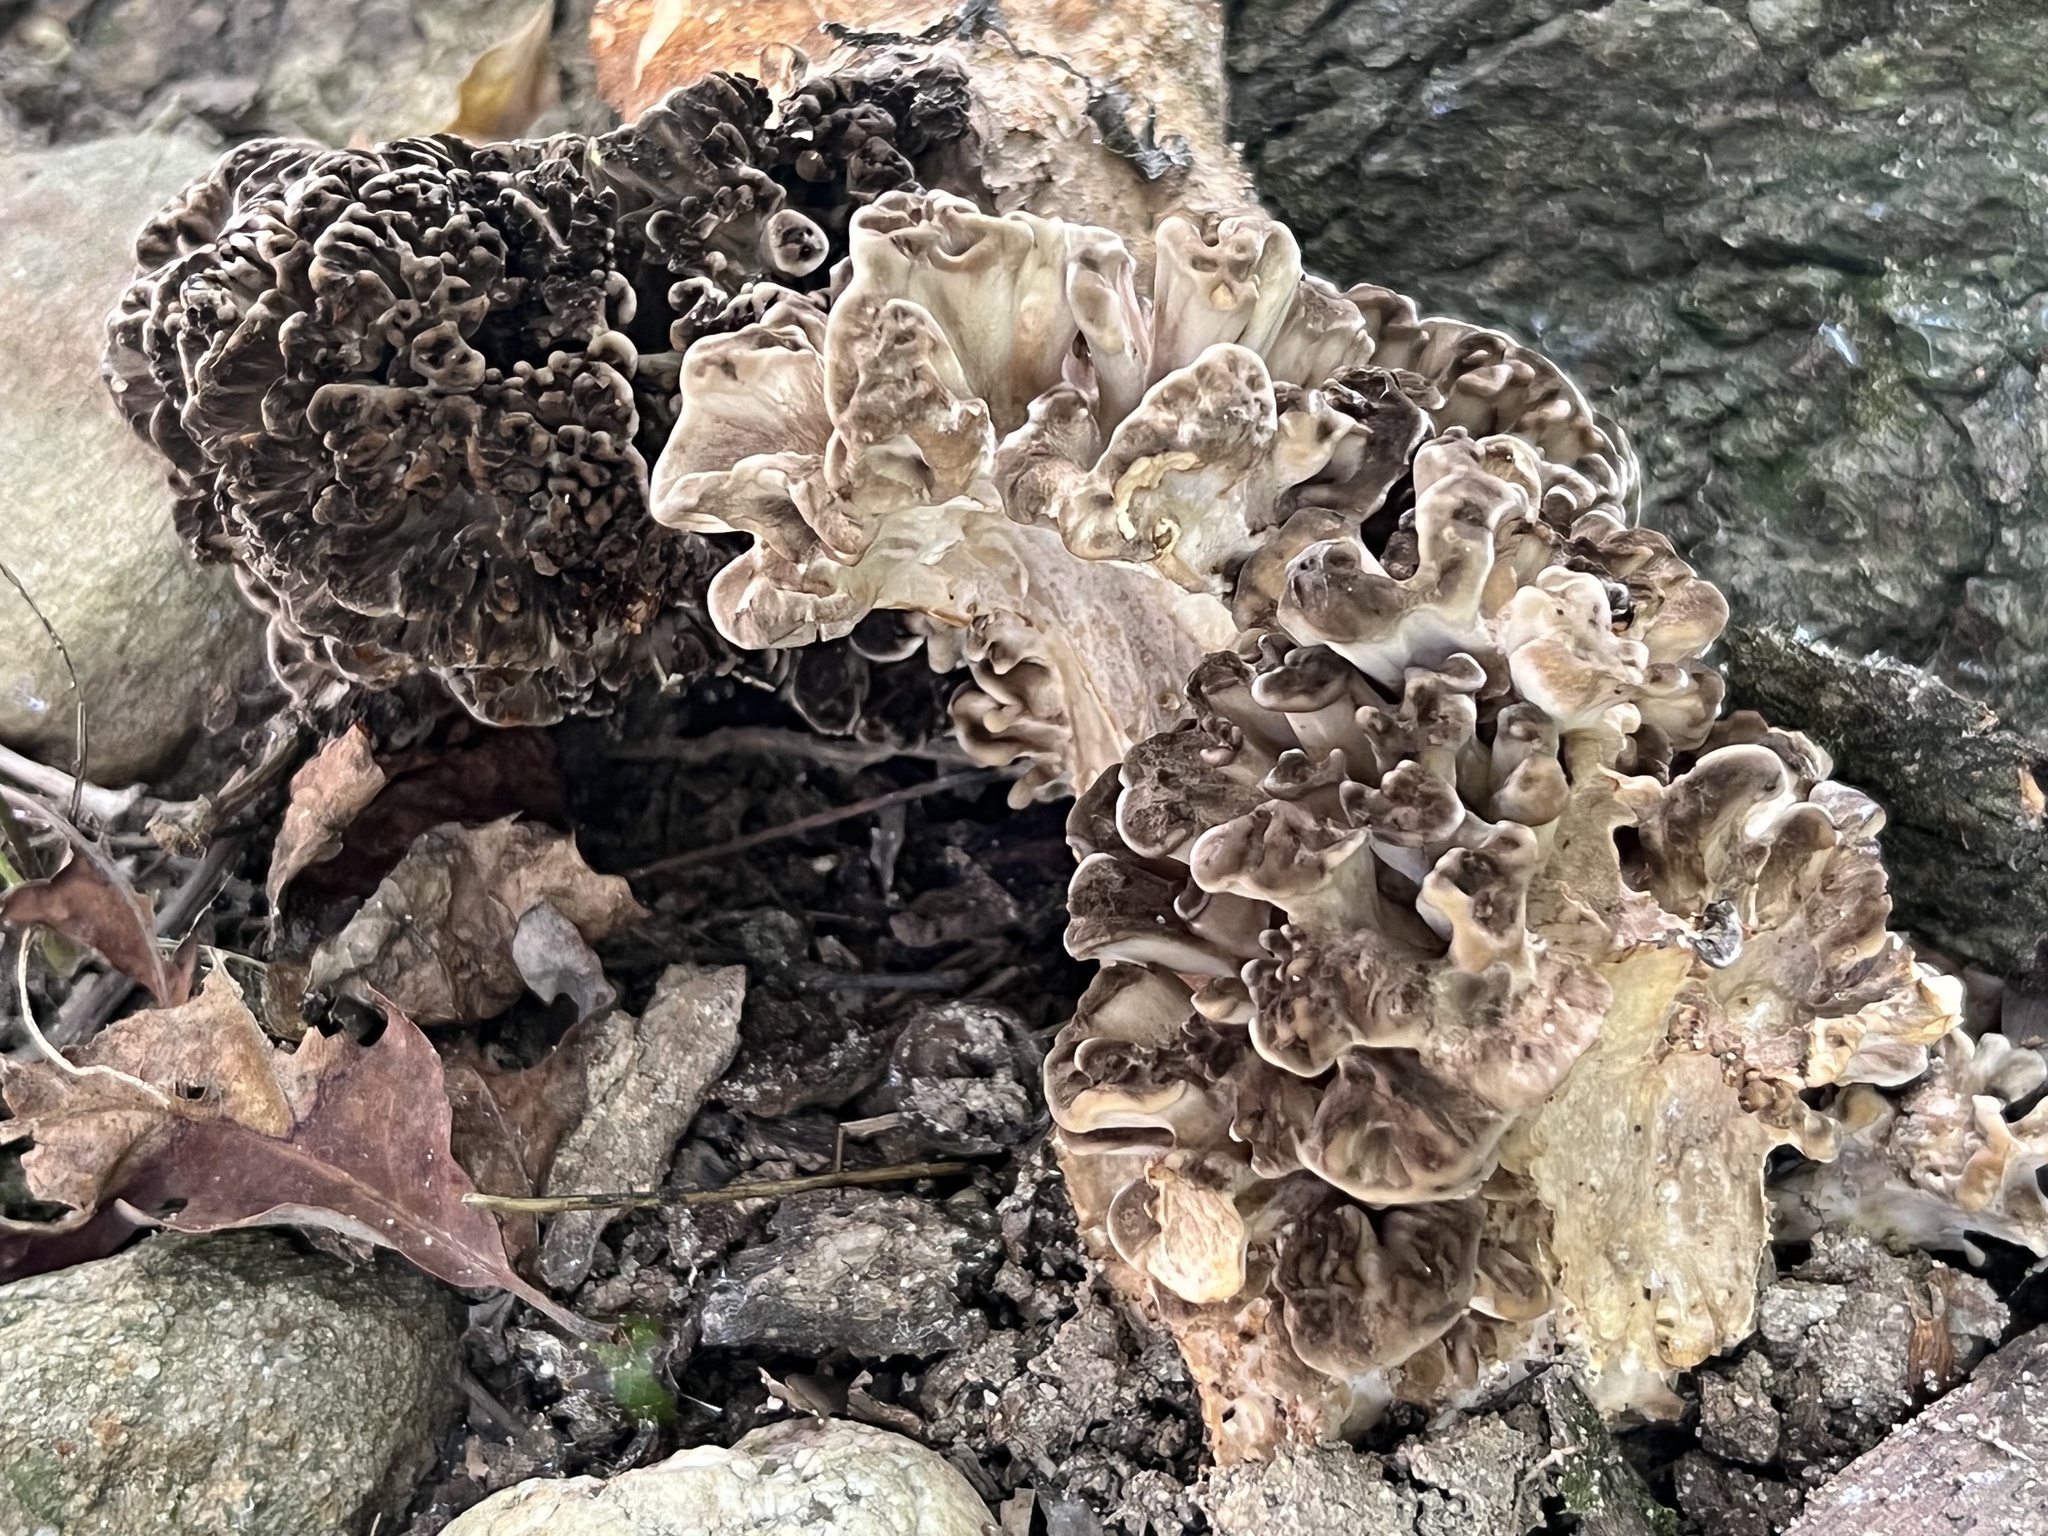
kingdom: Fungi
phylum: Basidiomycota
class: Agaricomycetes
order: Polyporales
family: Grifolaceae
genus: Grifola
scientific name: Grifola frondosa
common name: Hen of the woods
